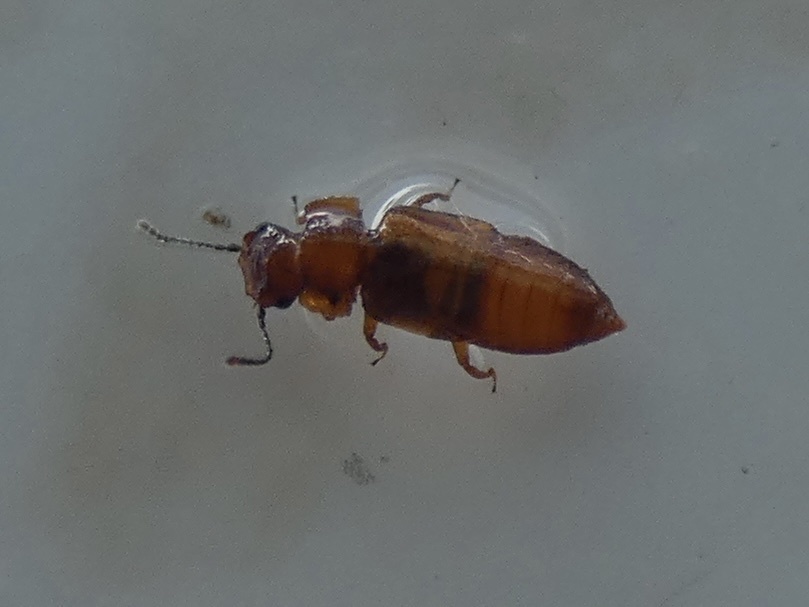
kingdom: Animalia
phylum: Arthropoda
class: Insecta
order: Coleoptera
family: Staphylinidae
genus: Metopsia
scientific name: Metopsia clypeata
